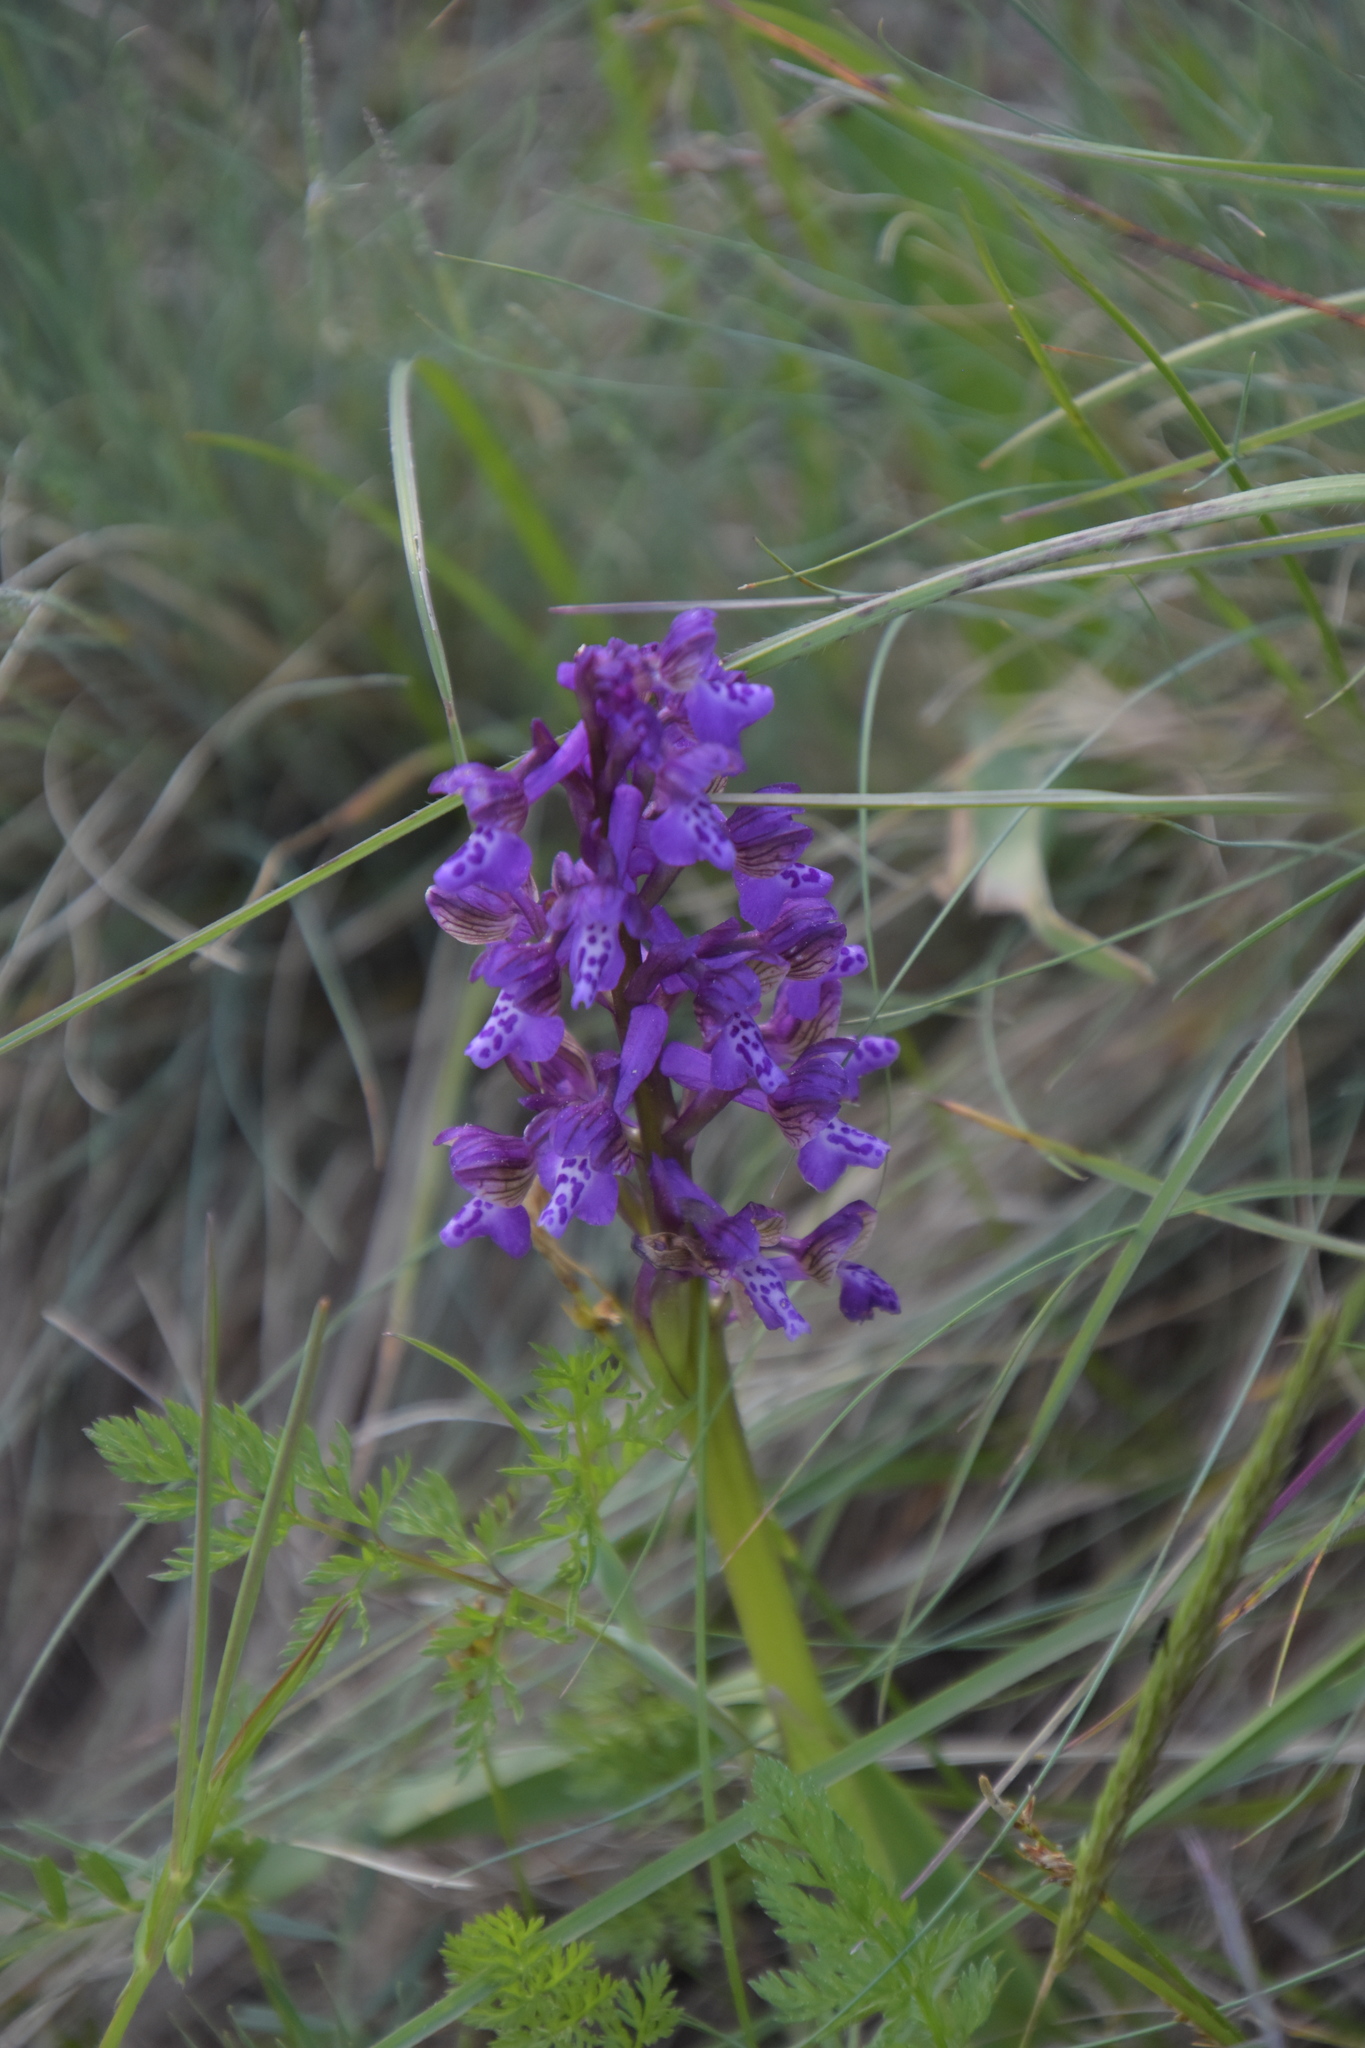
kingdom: Plantae
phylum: Tracheophyta
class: Liliopsida
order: Asparagales
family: Orchidaceae
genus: Anacamptis
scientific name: Anacamptis morio
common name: Green-winged orchid
